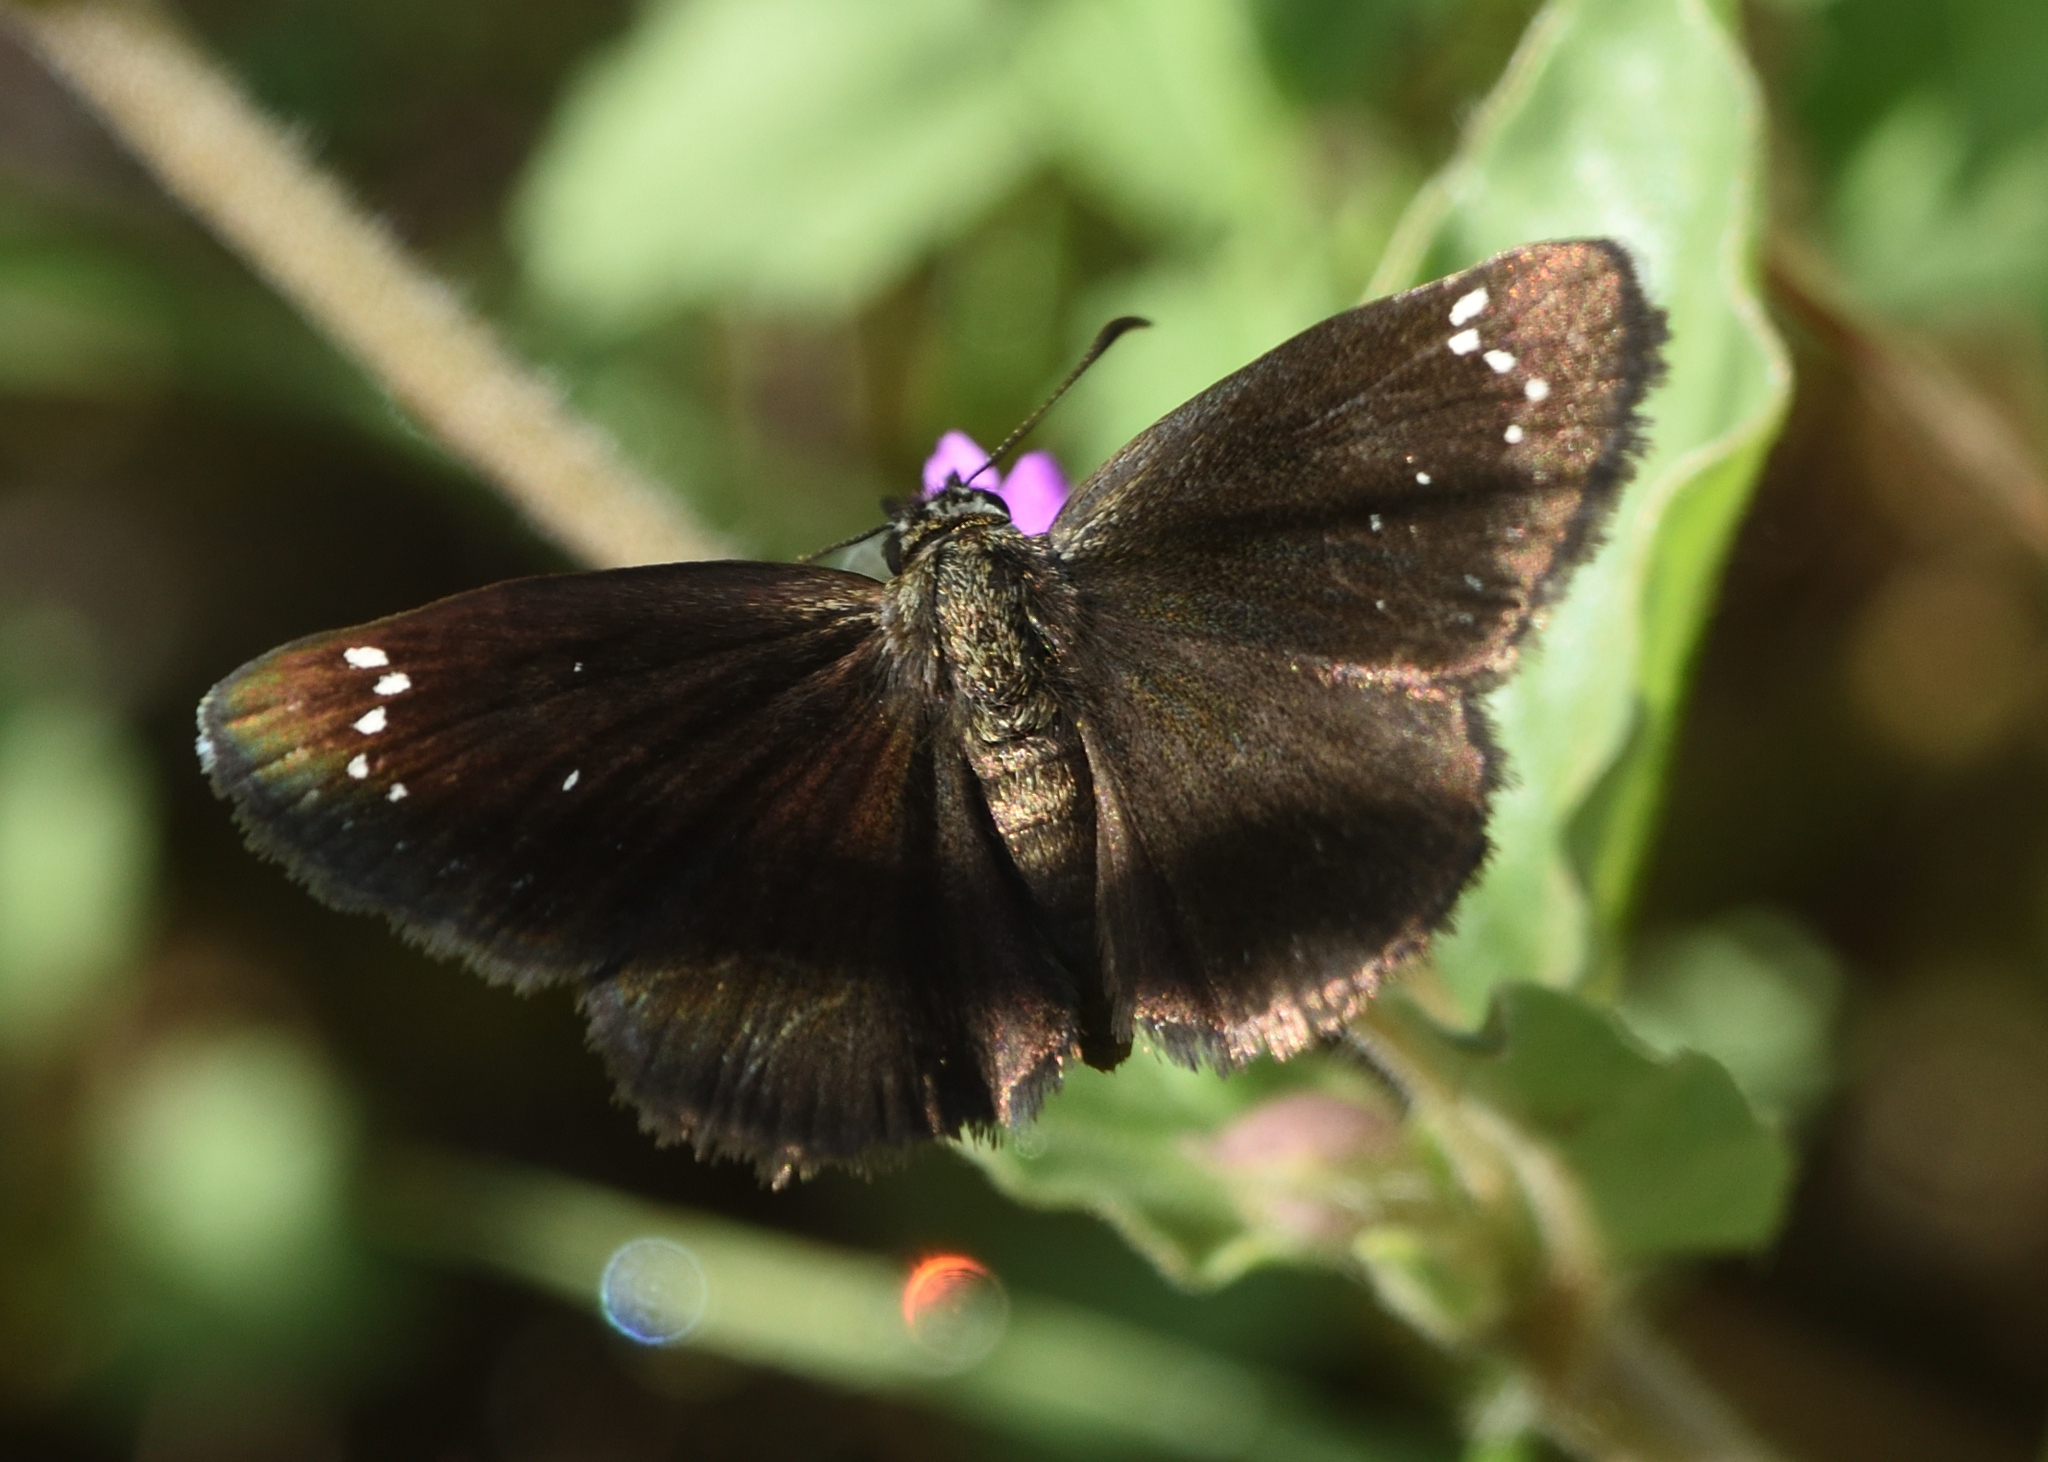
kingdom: Animalia
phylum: Arthropoda
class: Insecta
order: Lepidoptera
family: Hesperiidae
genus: Pholisora
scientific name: Pholisora catullus
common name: Common sootywing
